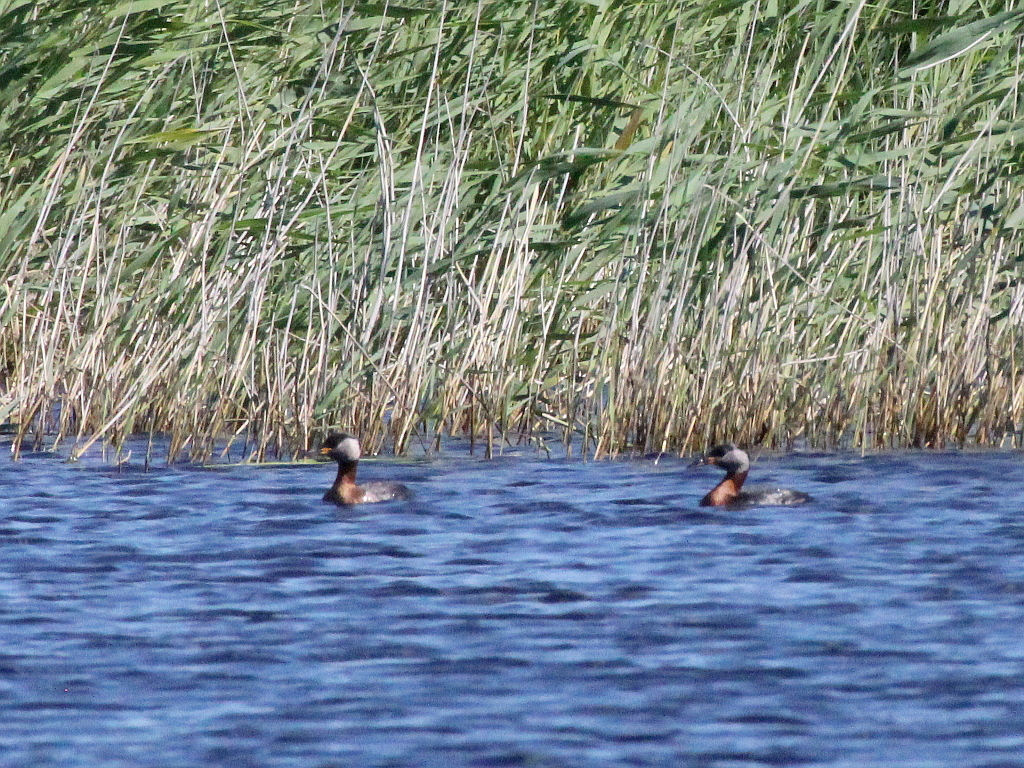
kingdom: Animalia
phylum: Chordata
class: Aves
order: Podicipediformes
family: Podicipedidae
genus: Podiceps
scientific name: Podiceps grisegena
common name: Red-necked grebe
